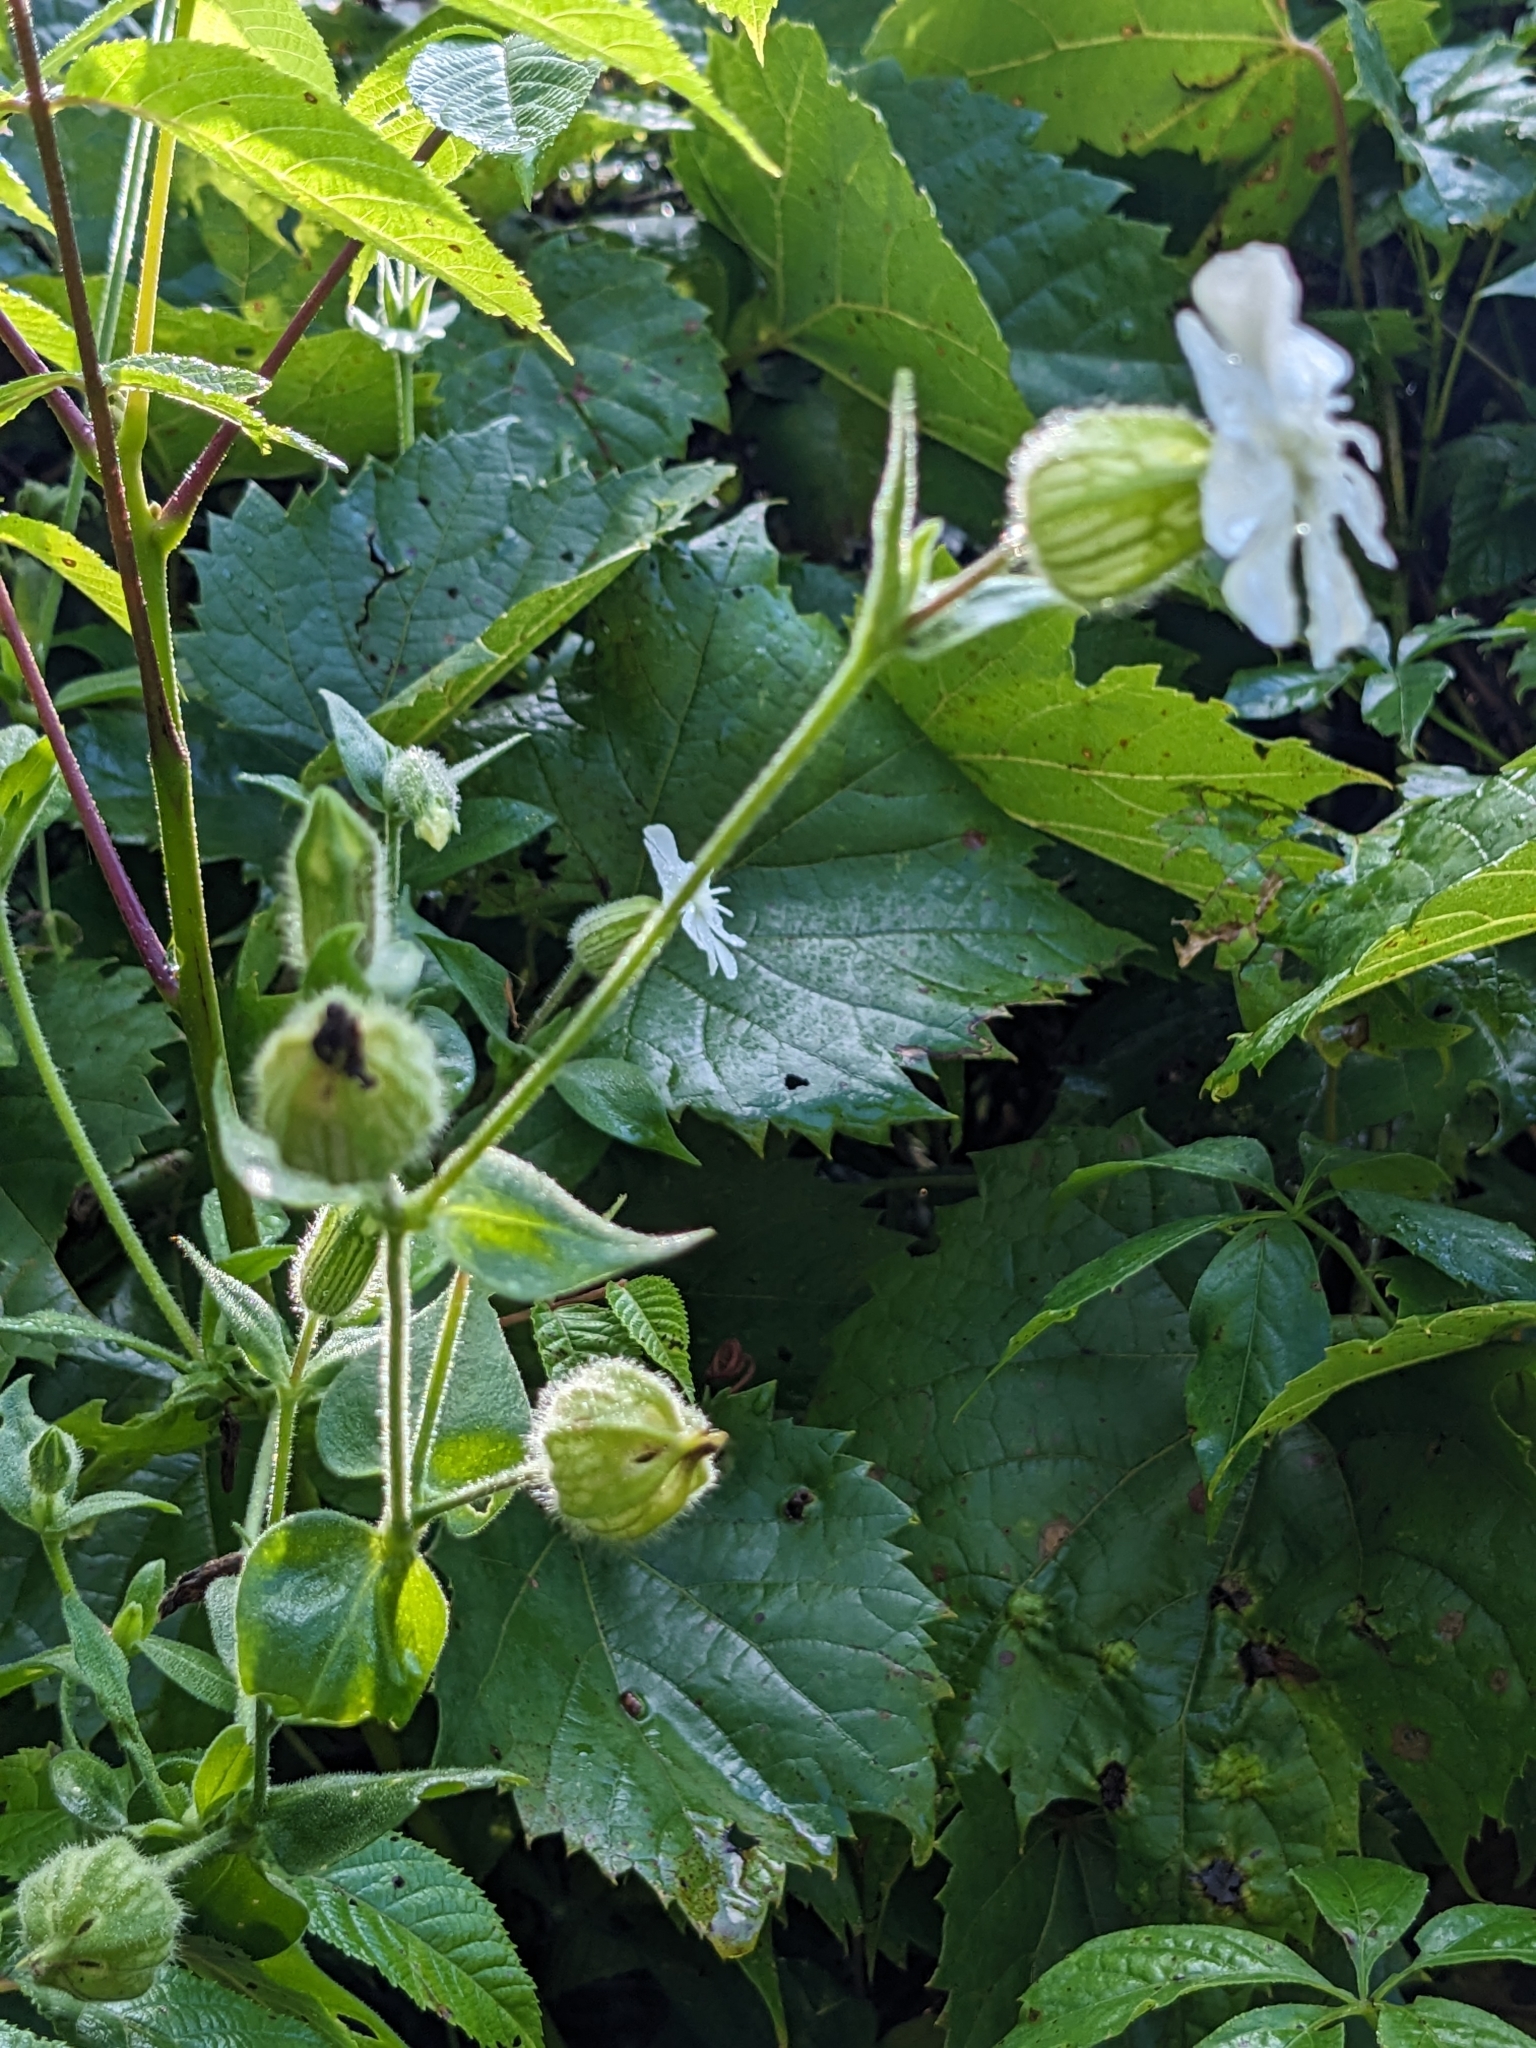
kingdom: Plantae
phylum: Tracheophyta
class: Magnoliopsida
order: Caryophyllales
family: Caryophyllaceae
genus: Silene
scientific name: Silene latifolia
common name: White campion
